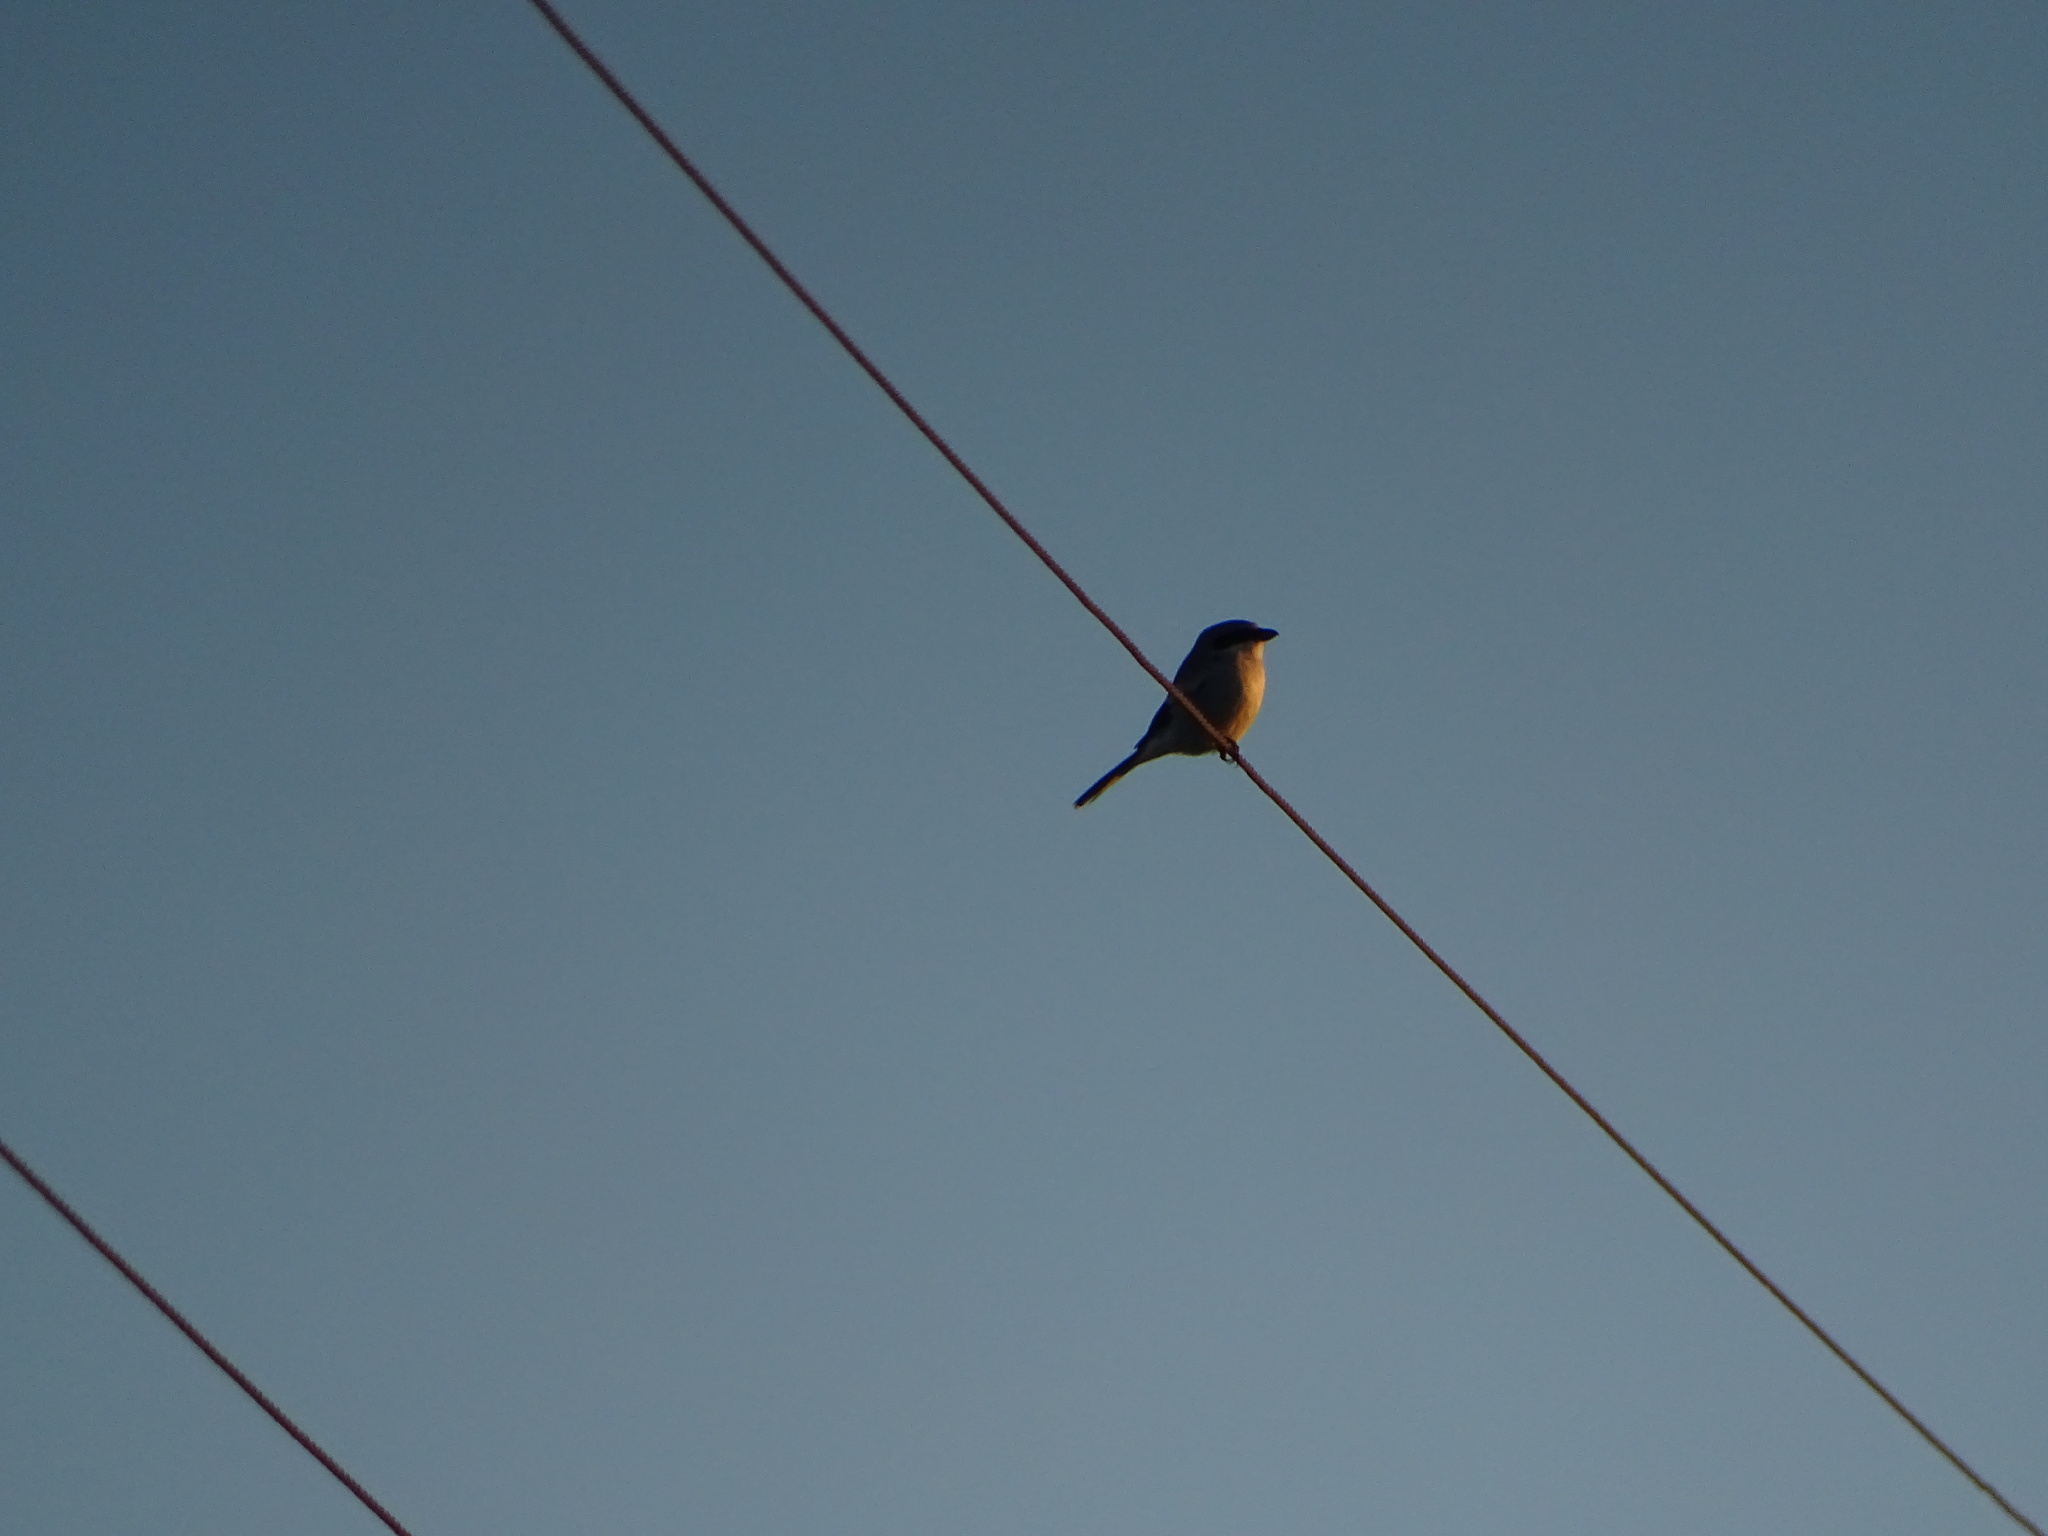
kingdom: Animalia
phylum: Chordata
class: Aves
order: Passeriformes
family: Laniidae
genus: Lanius
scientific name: Lanius ludovicianus
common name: Loggerhead shrike
